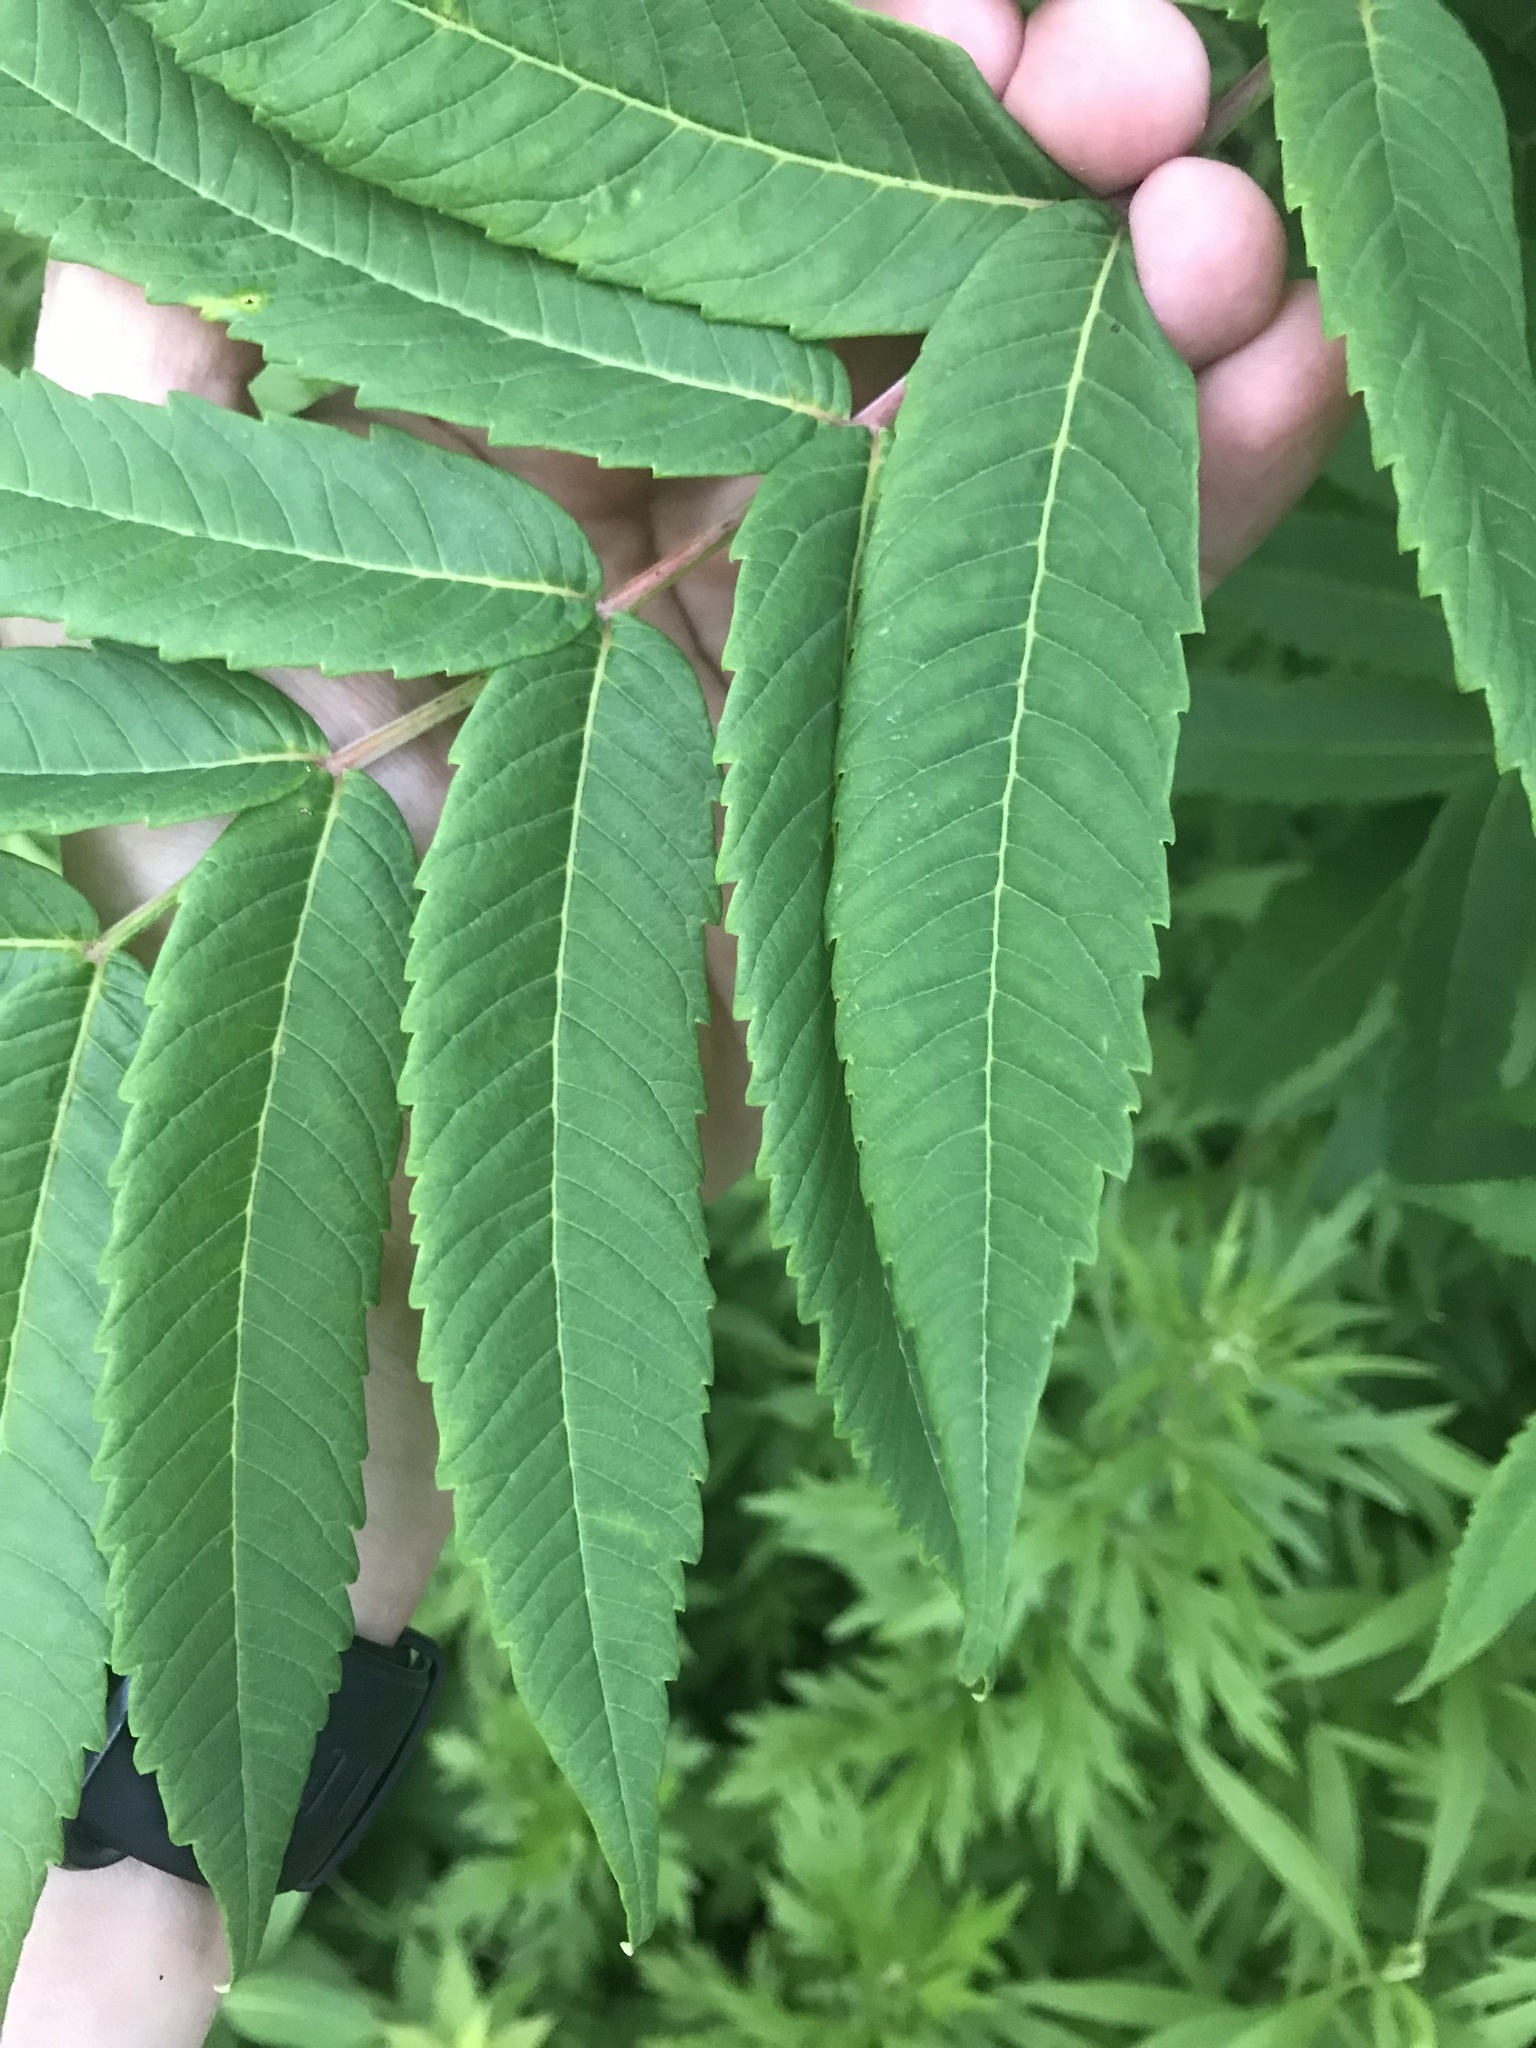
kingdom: Plantae
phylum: Tracheophyta
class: Magnoliopsida
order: Sapindales
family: Anacardiaceae
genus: Rhus
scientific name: Rhus glabra
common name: Scarlet sumac
